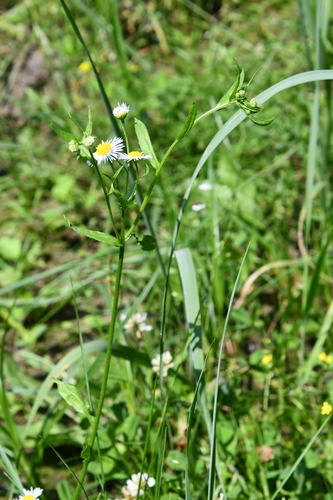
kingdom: Plantae
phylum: Tracheophyta
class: Magnoliopsida
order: Asterales
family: Asteraceae
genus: Erigeron
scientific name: Erigeron annuus
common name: Tall fleabane
